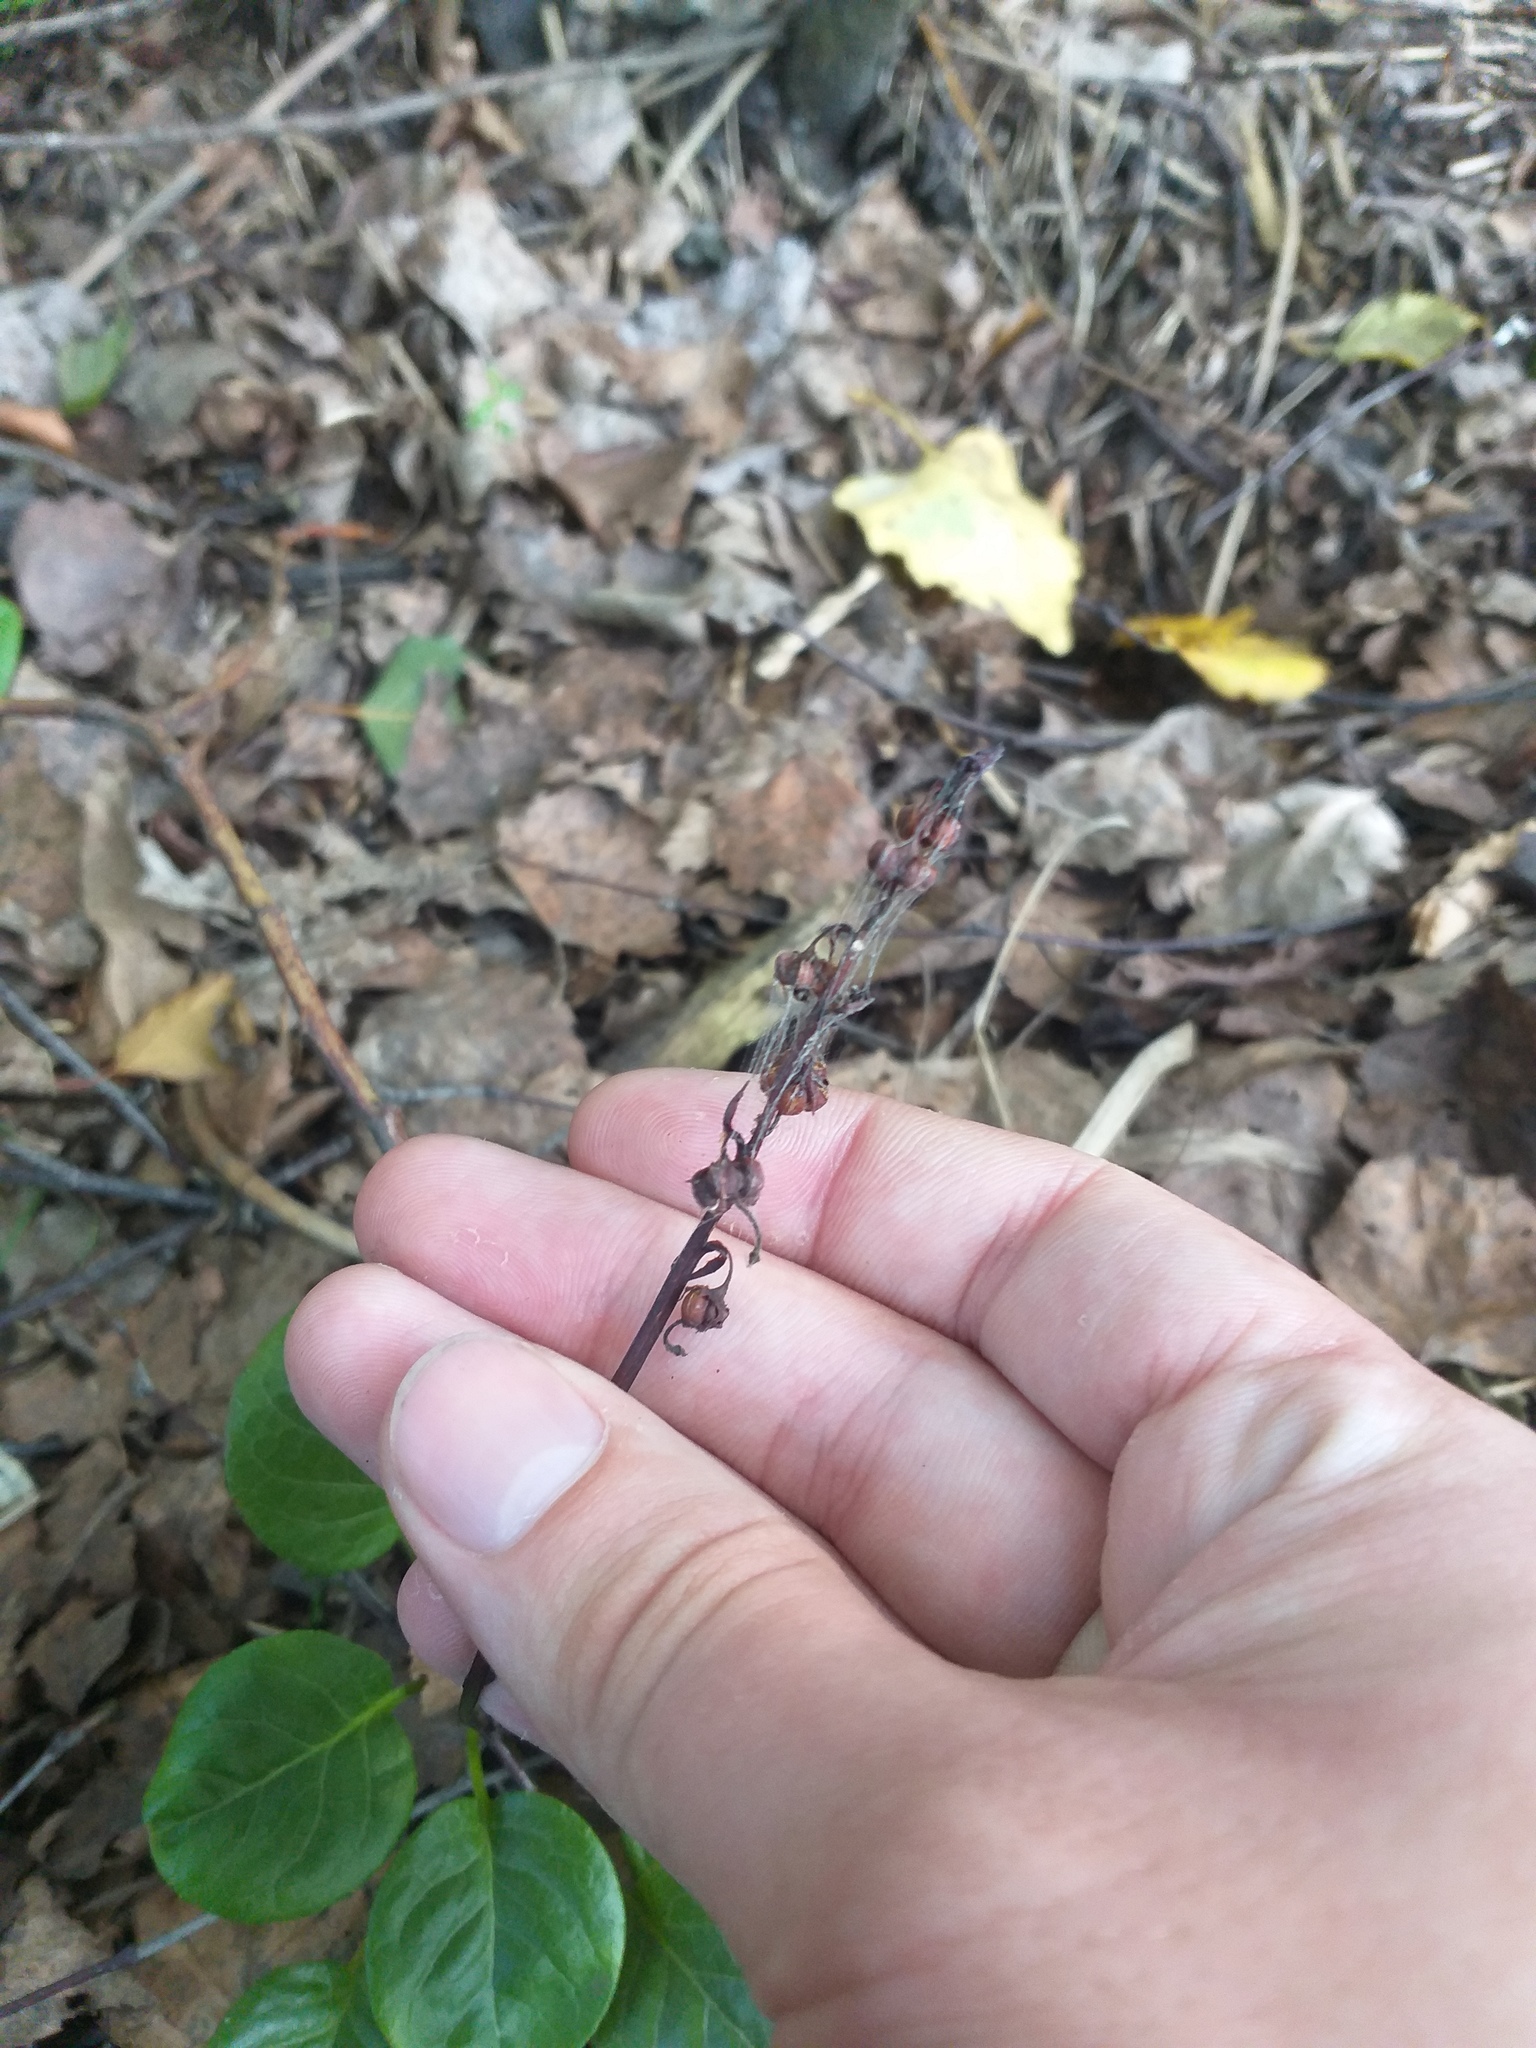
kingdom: Plantae
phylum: Tracheophyta
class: Magnoliopsida
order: Ericales
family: Ericaceae
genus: Pyrola
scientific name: Pyrola rotundifolia
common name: Round-leaved wintergreen
